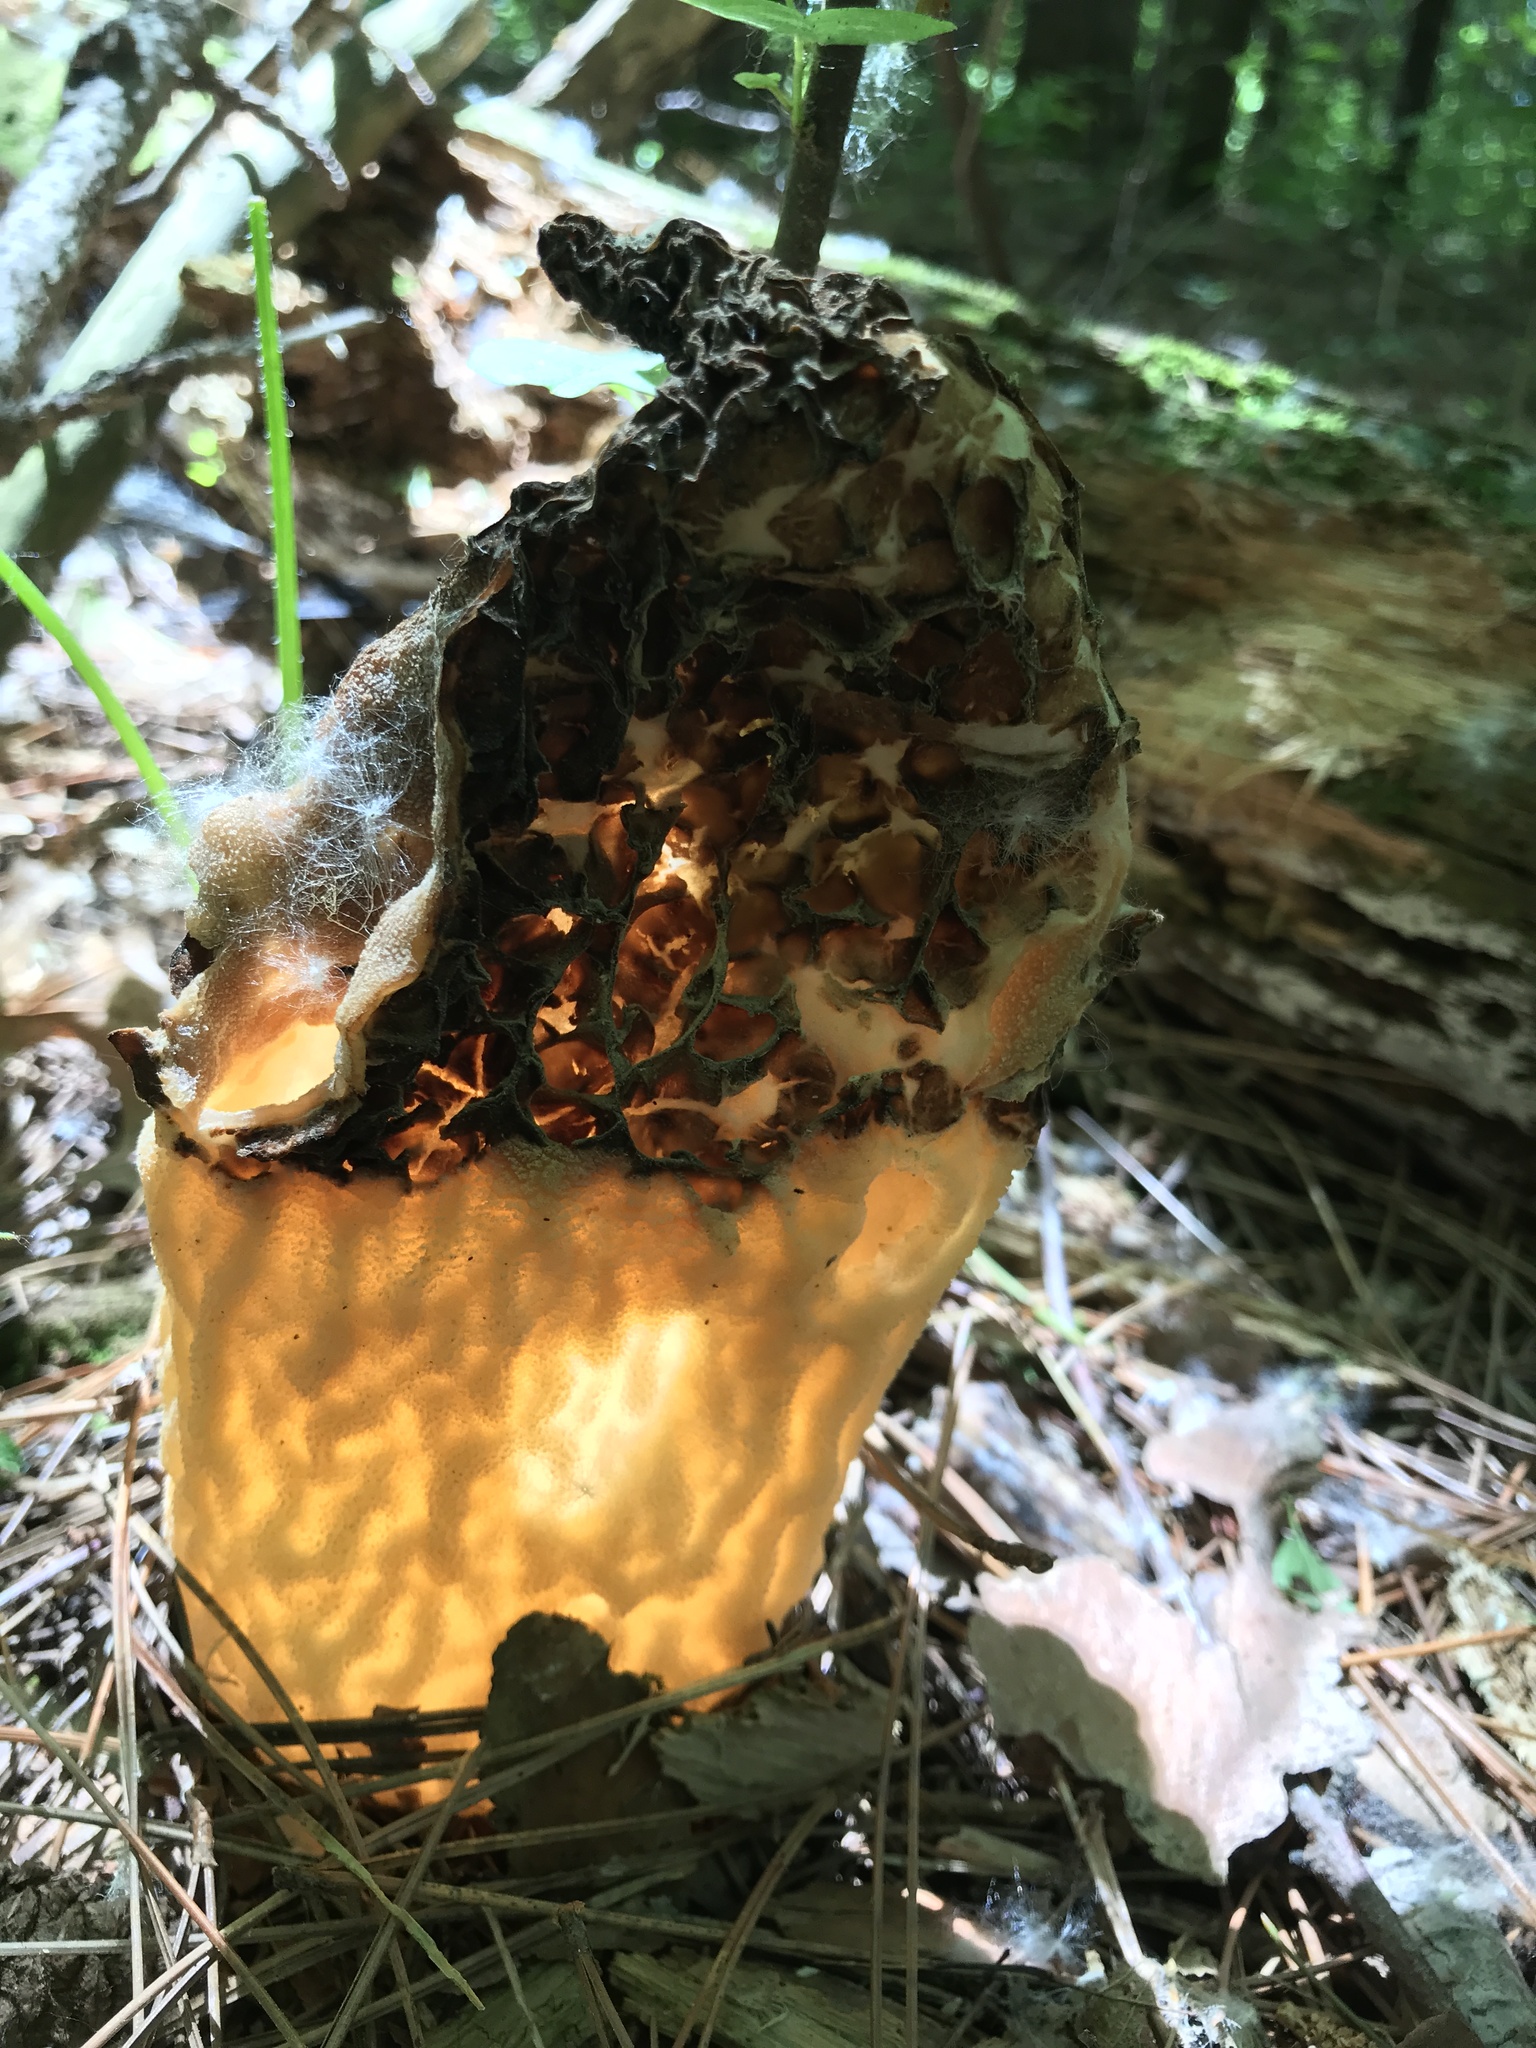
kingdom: Fungi
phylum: Ascomycota
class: Pezizomycetes
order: Pezizales
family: Morchellaceae
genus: Morchella
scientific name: Morchella angusticeps
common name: Black morel
